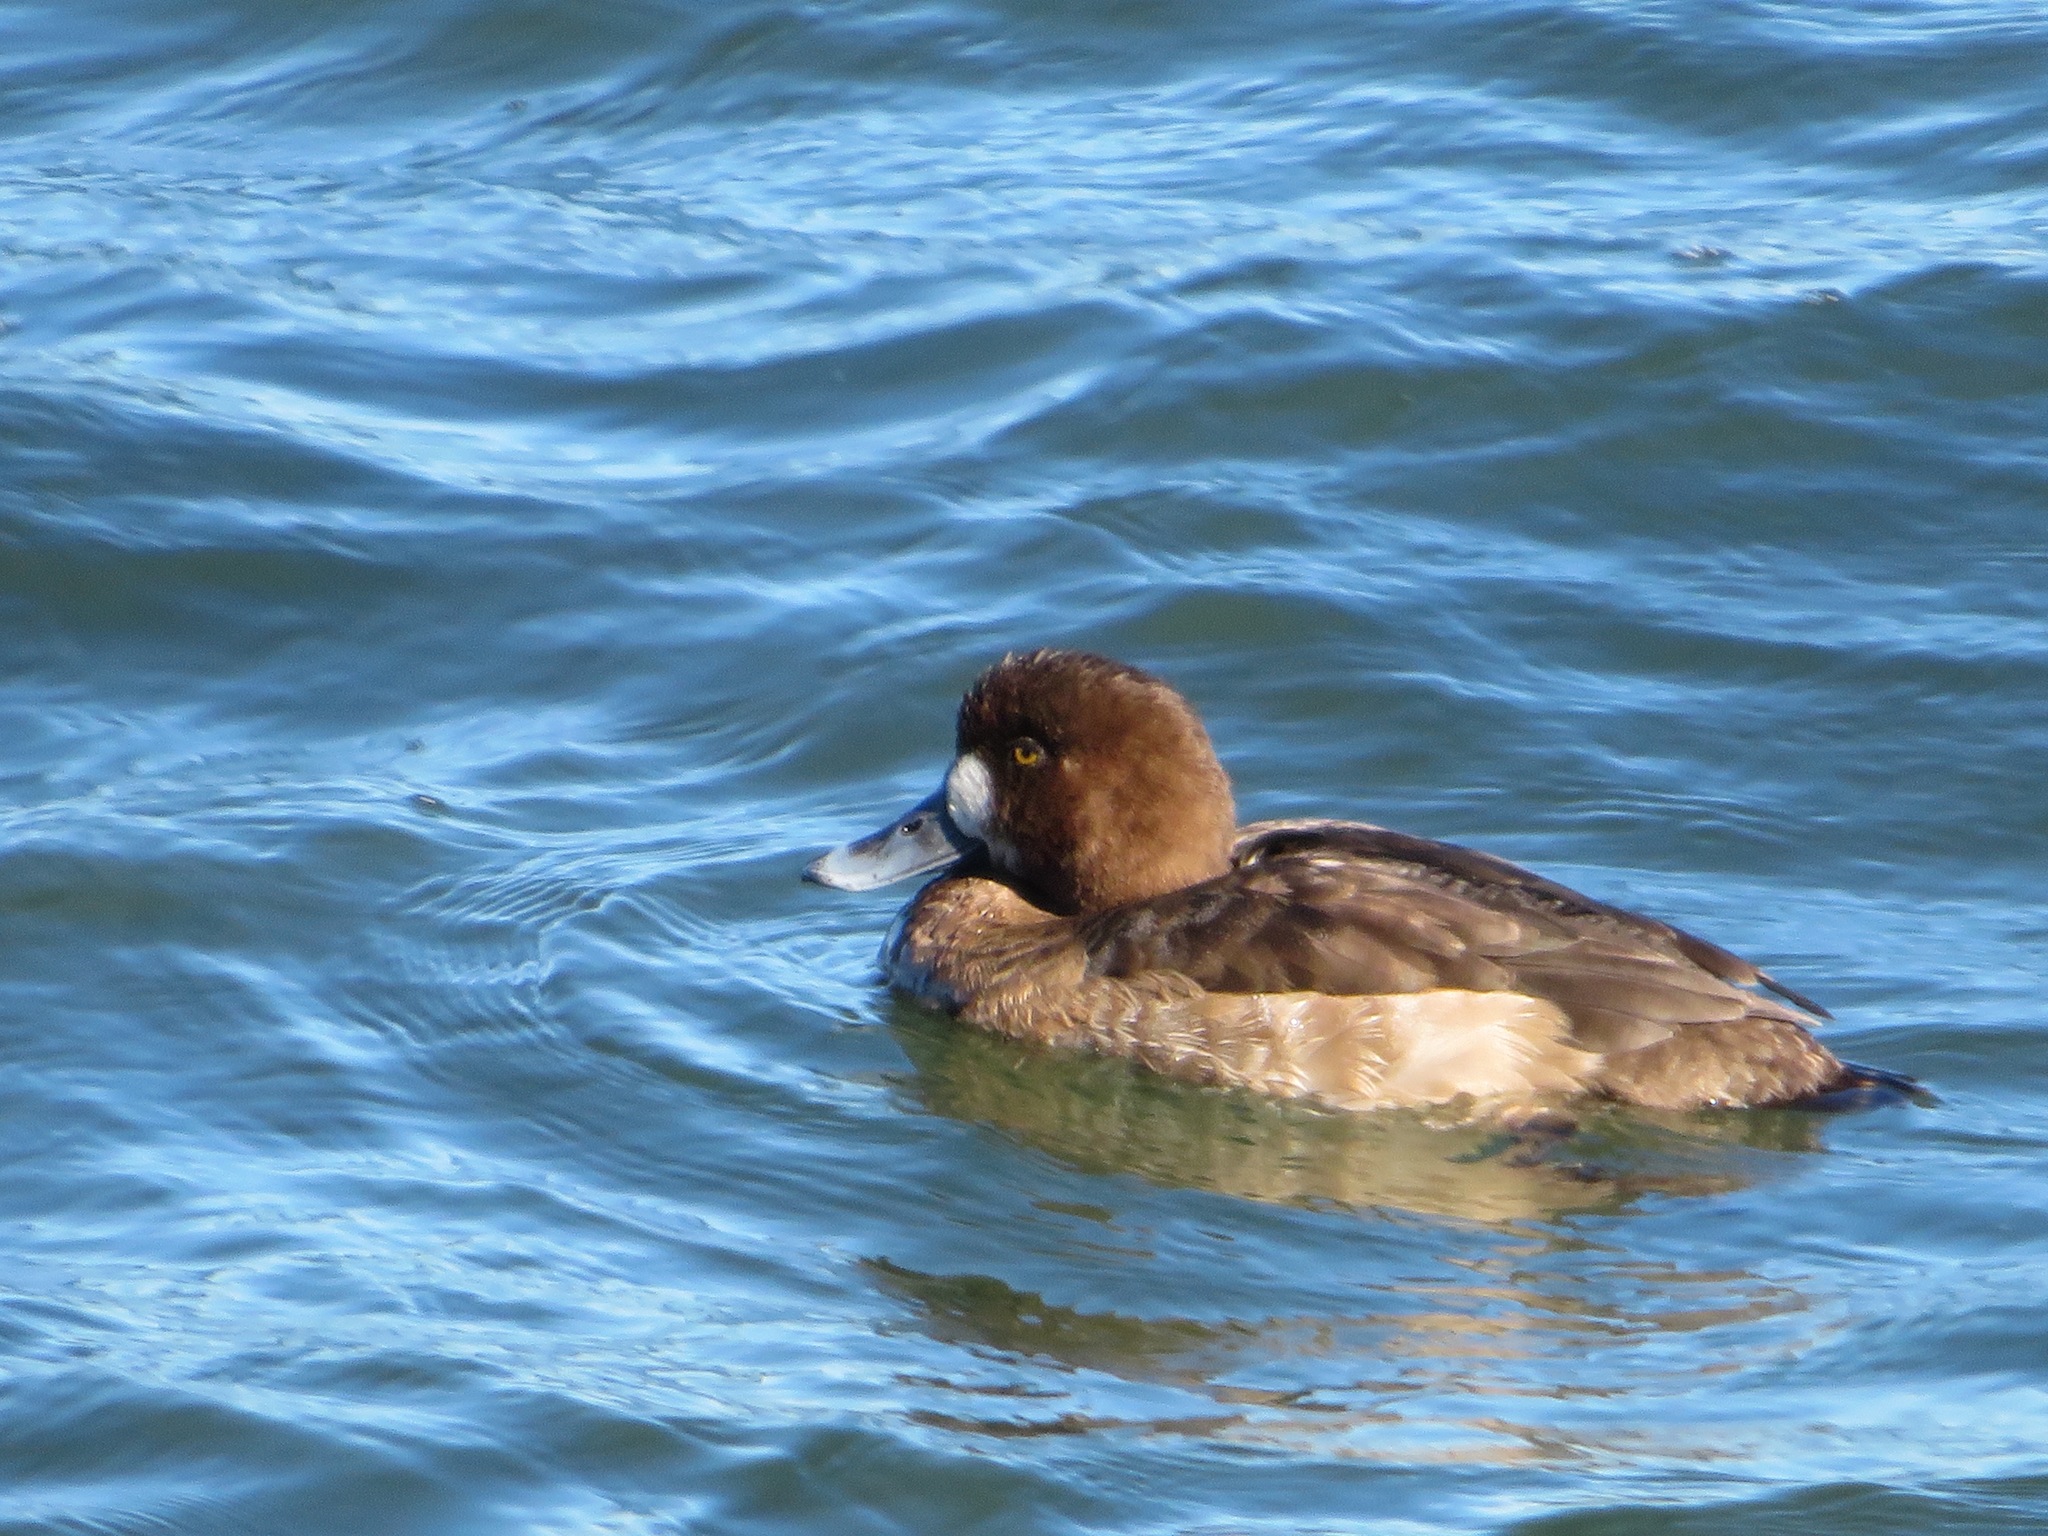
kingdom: Animalia
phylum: Chordata
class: Aves
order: Anseriformes
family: Anatidae
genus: Aythya
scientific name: Aythya marila
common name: Greater scaup
